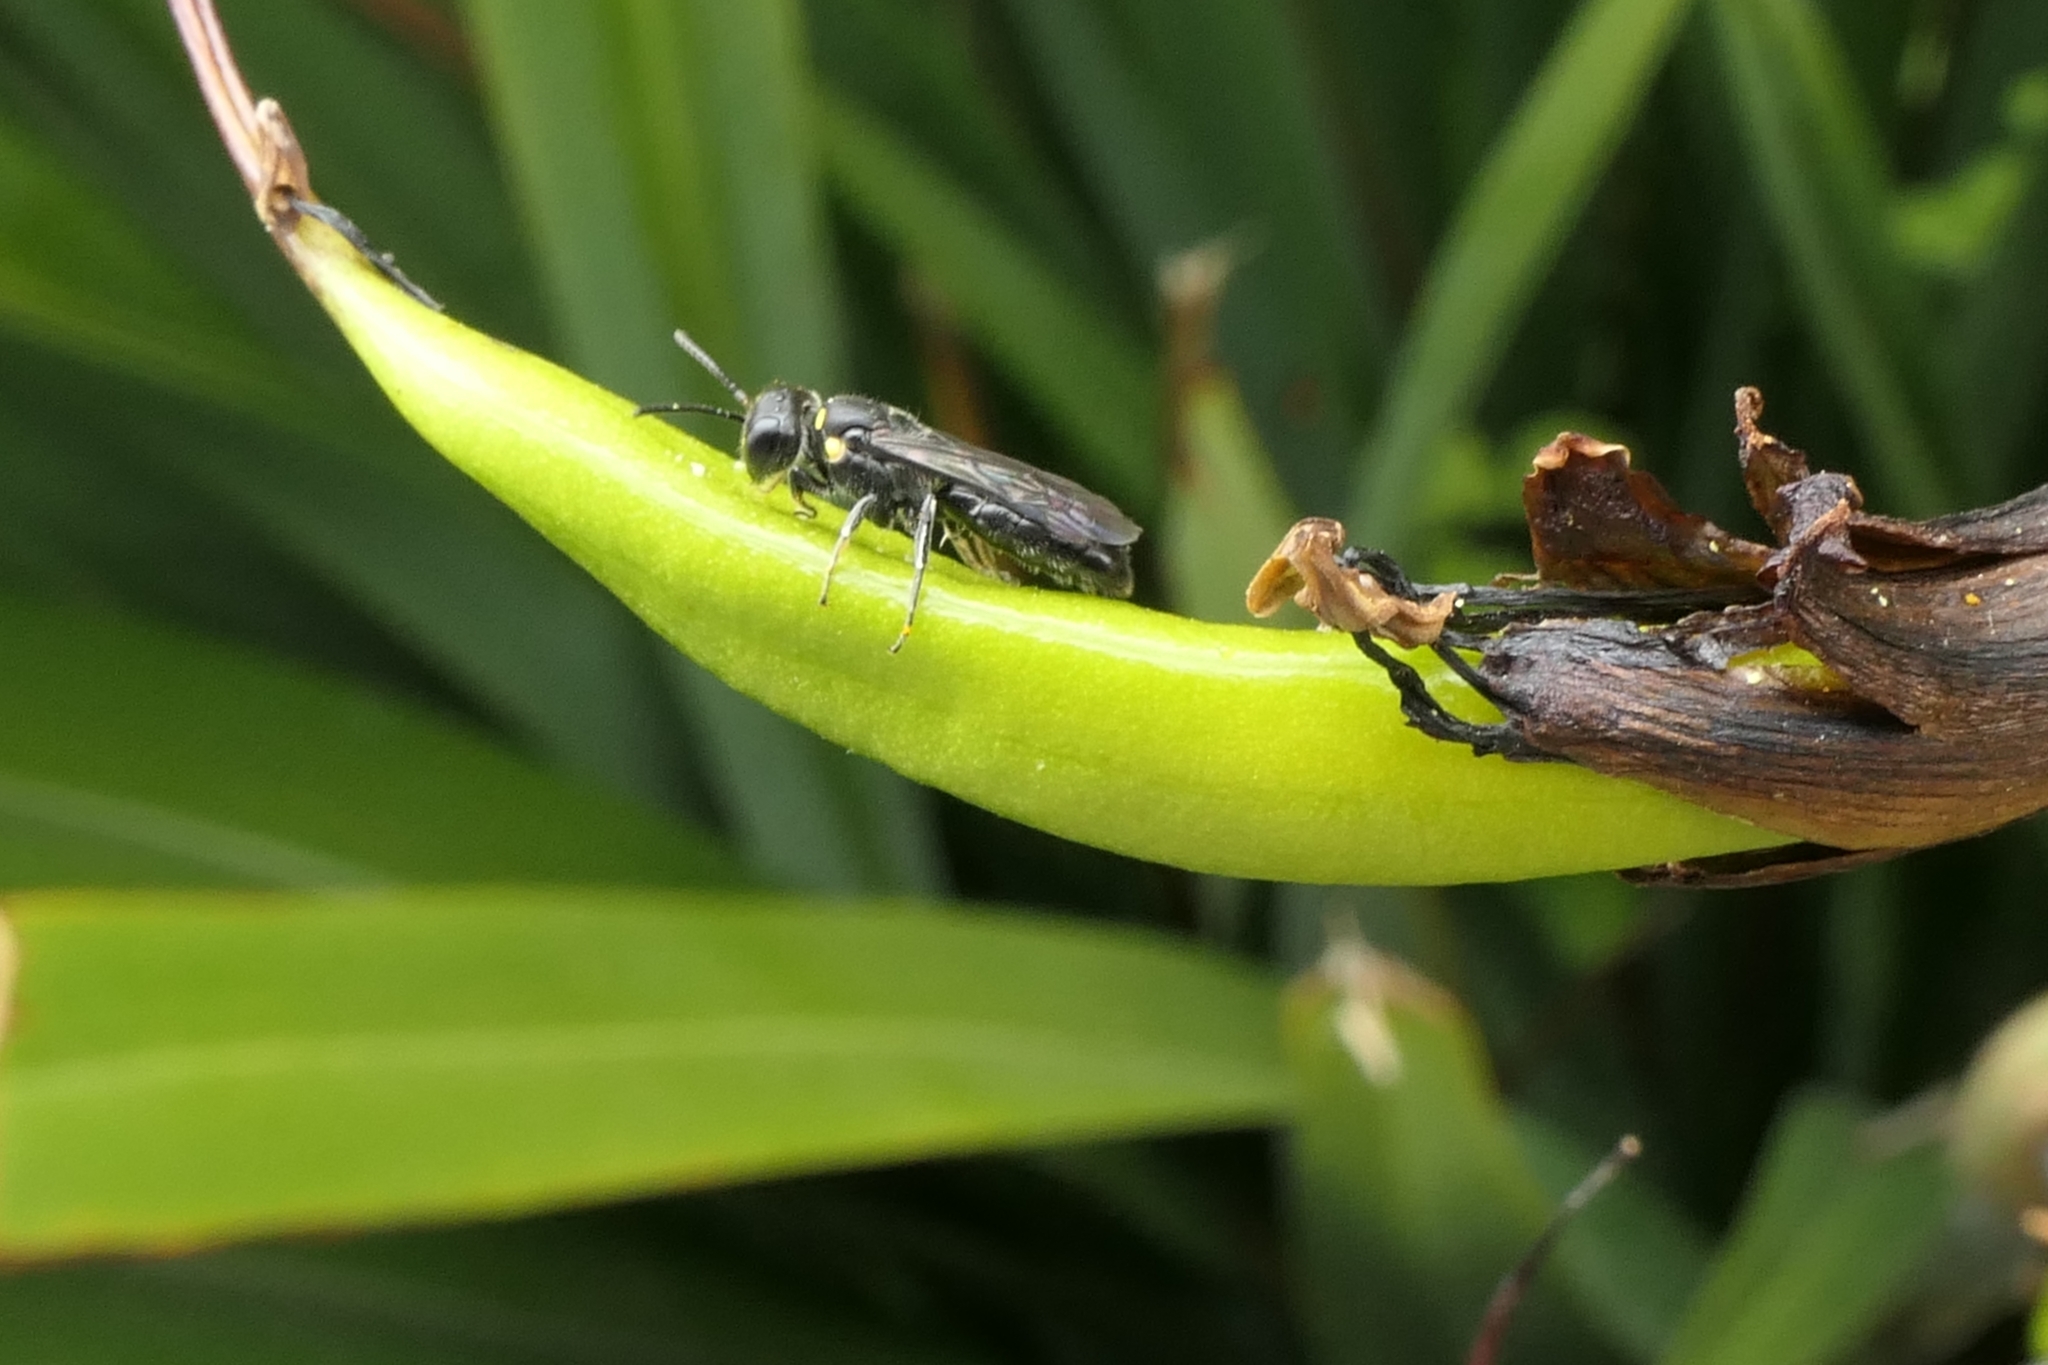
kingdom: Animalia
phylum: Arthropoda
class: Insecta
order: Hymenoptera
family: Colletidae
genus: Hylaeus
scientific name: Hylaeus relegatus
